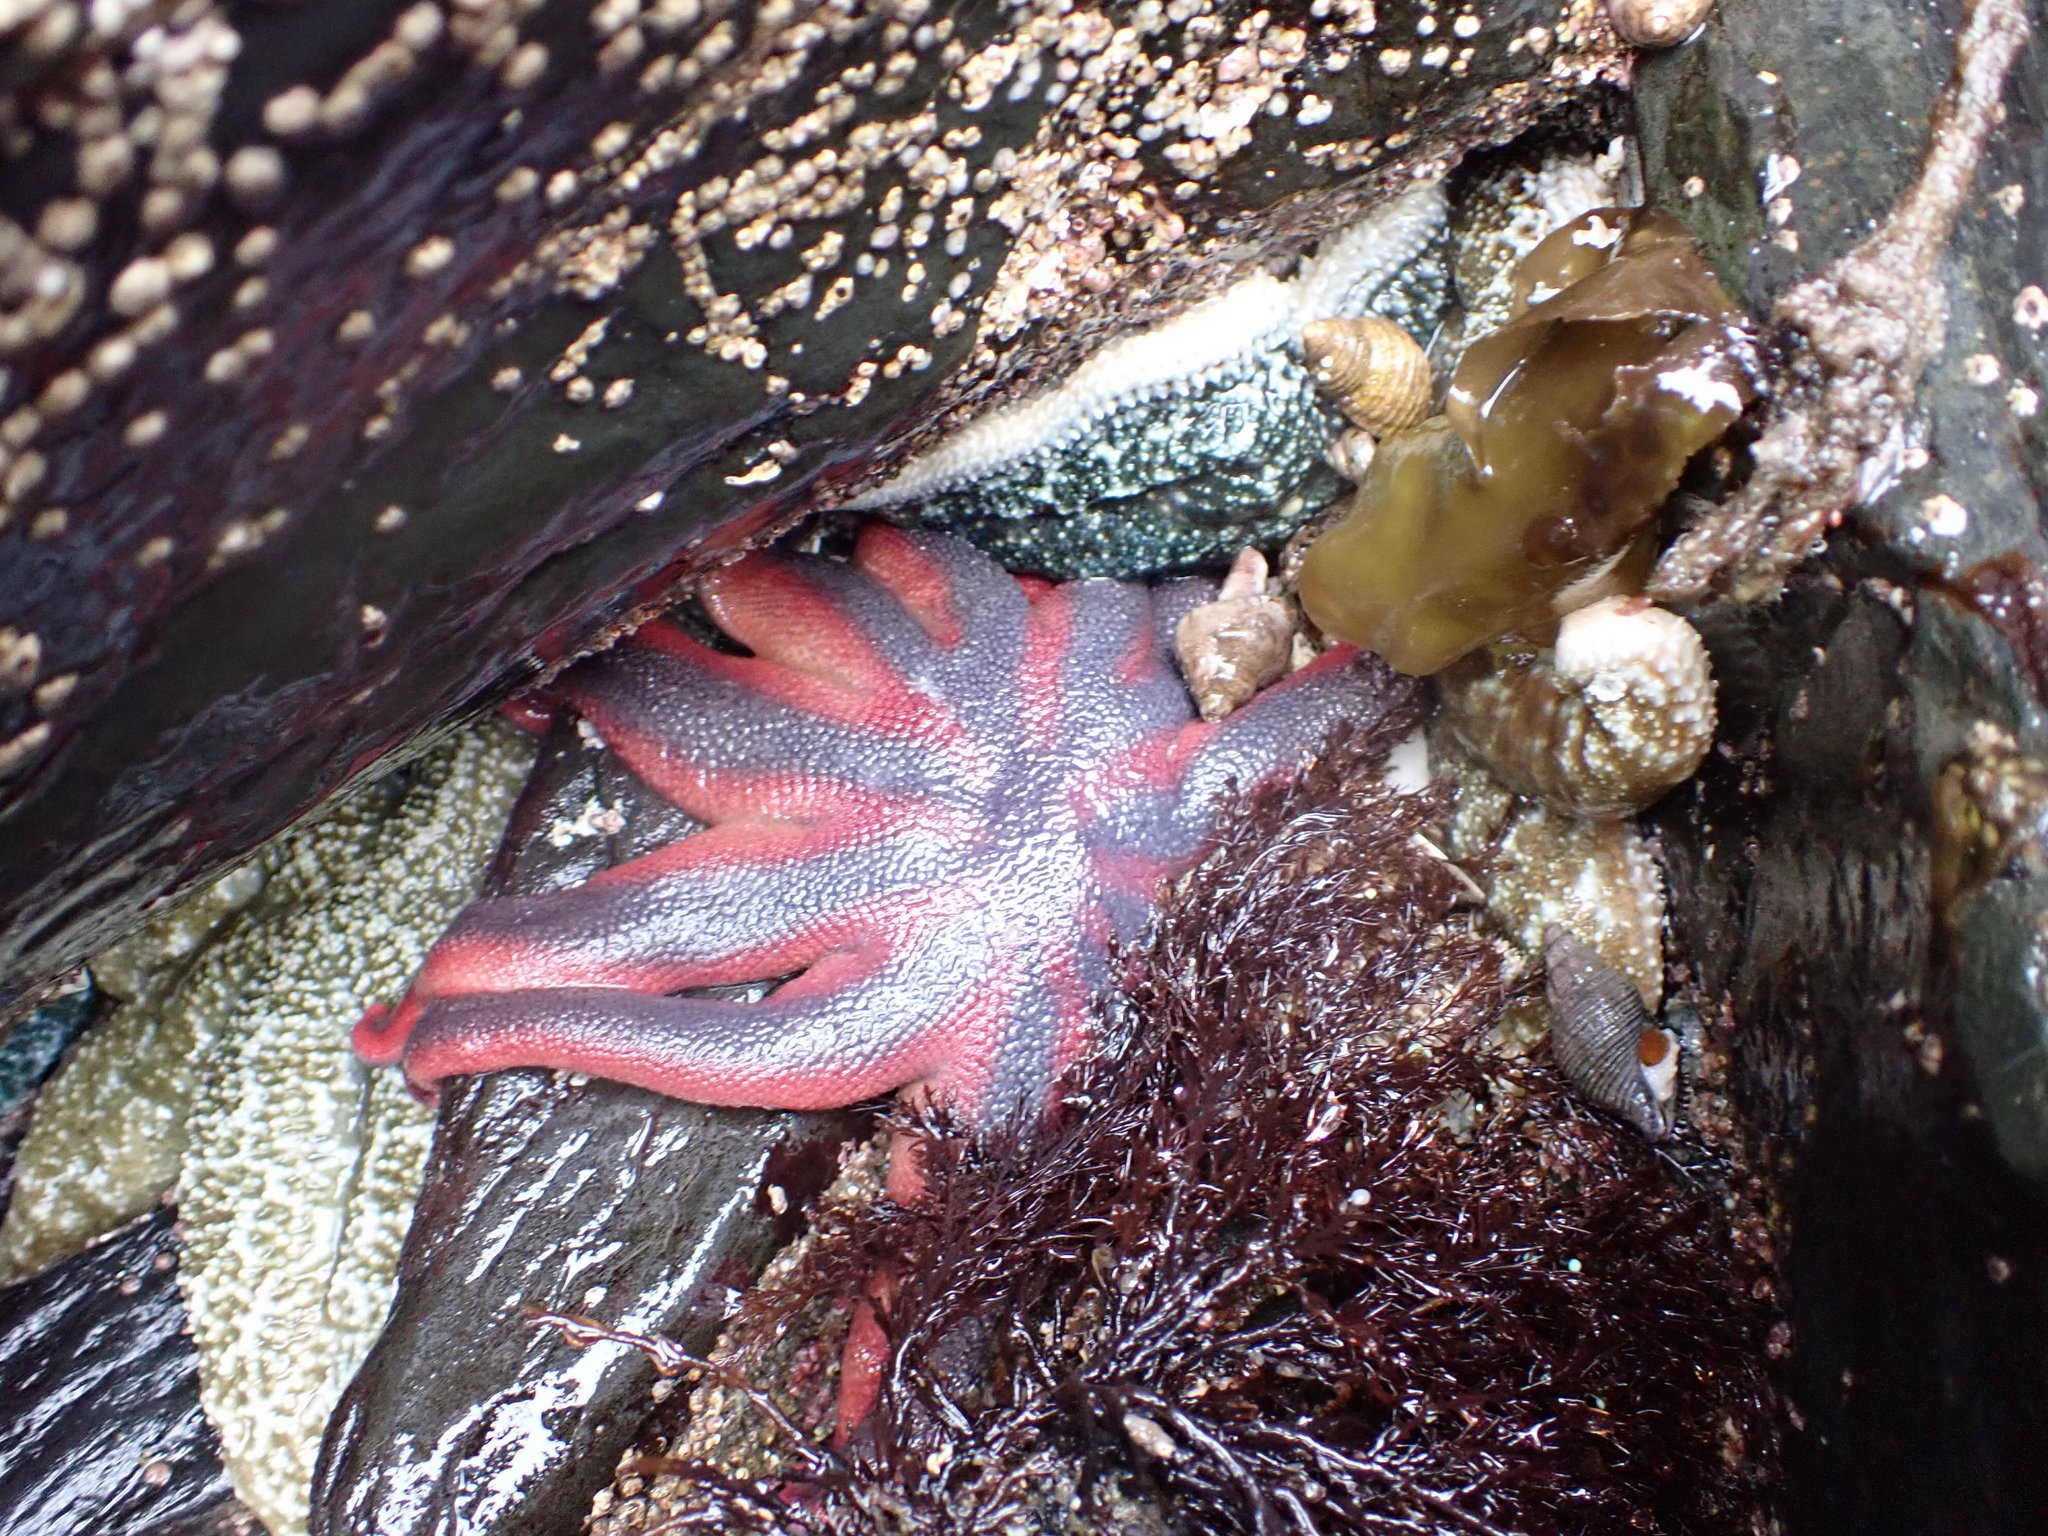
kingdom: Animalia
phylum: Echinodermata
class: Asteroidea
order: Valvatida
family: Solasteridae
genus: Solaster
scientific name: Solaster stimpsoni
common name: Orange sun star
